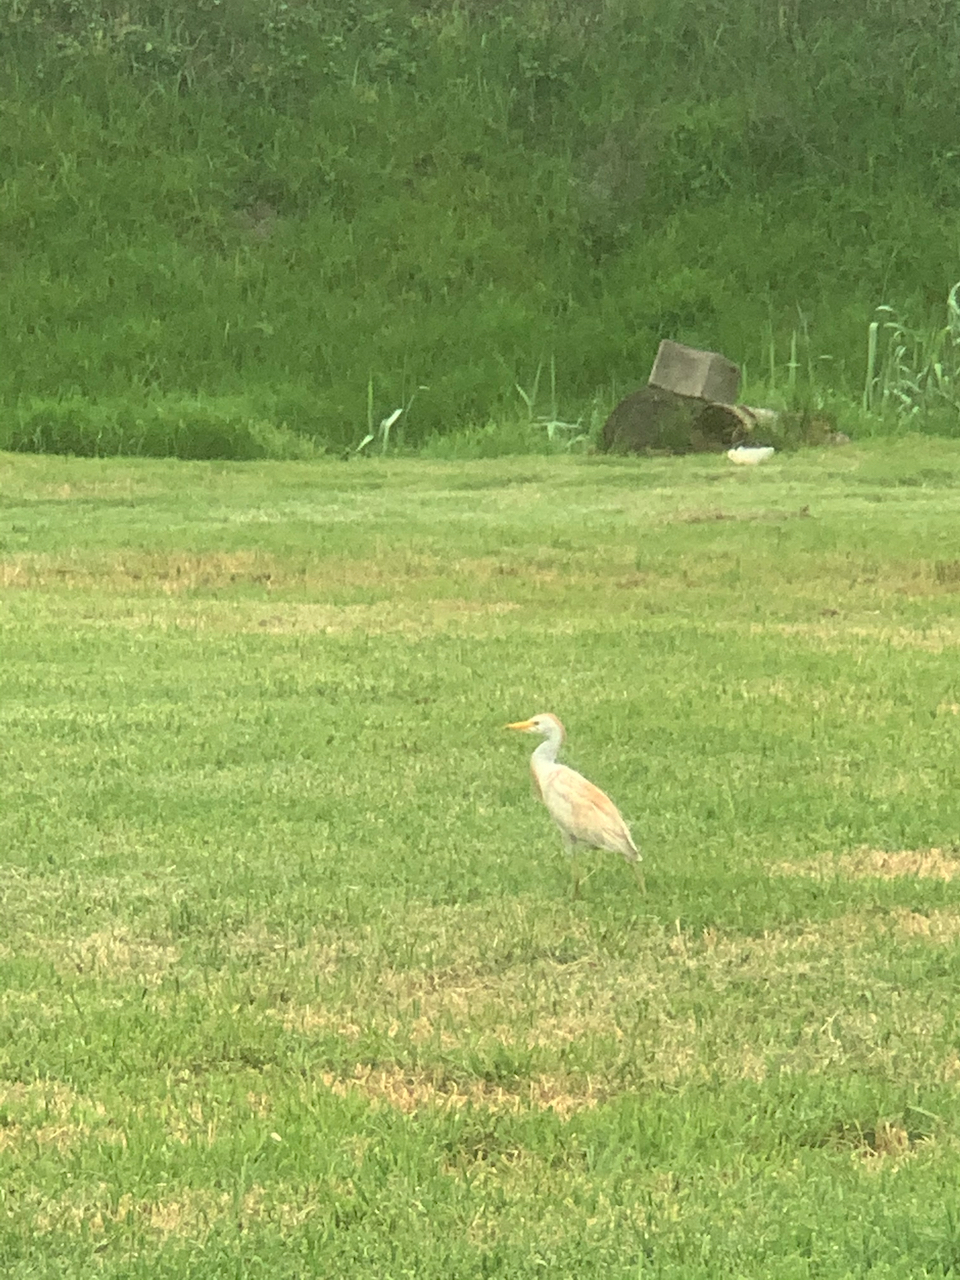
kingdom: Animalia
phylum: Chordata
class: Aves
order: Pelecaniformes
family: Ardeidae
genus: Bubulcus
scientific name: Bubulcus ibis
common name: Cattle egret
